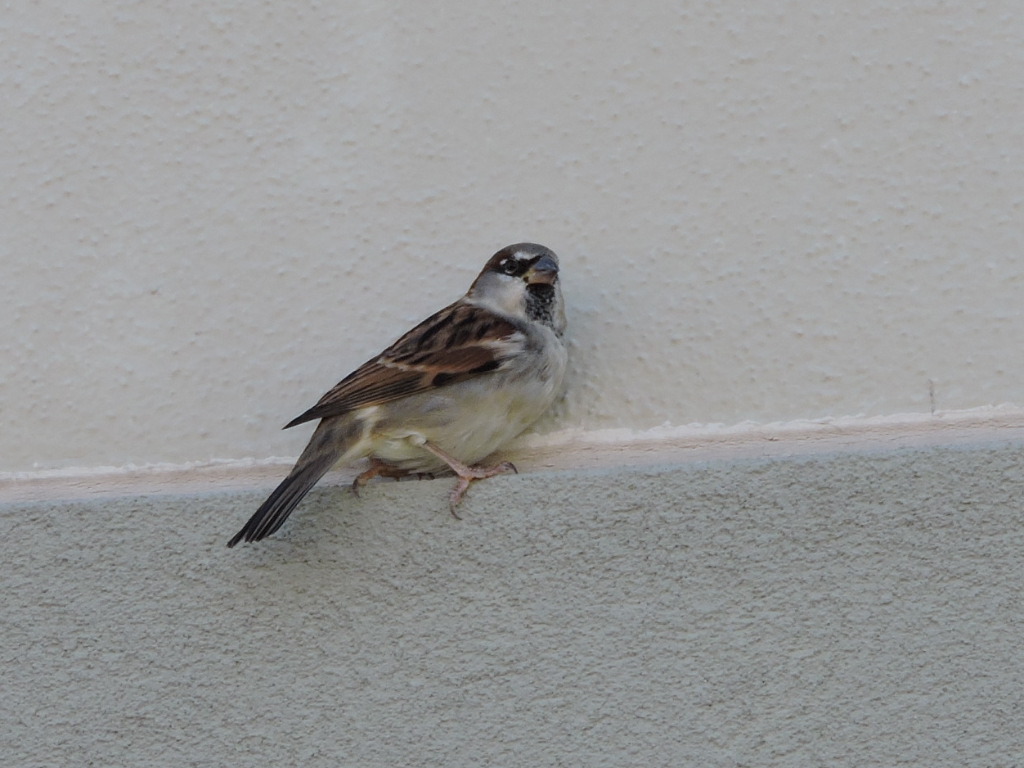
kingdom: Animalia
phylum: Chordata
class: Aves
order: Passeriformes
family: Passeridae
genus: Passer
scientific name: Passer domesticus
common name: House sparrow
